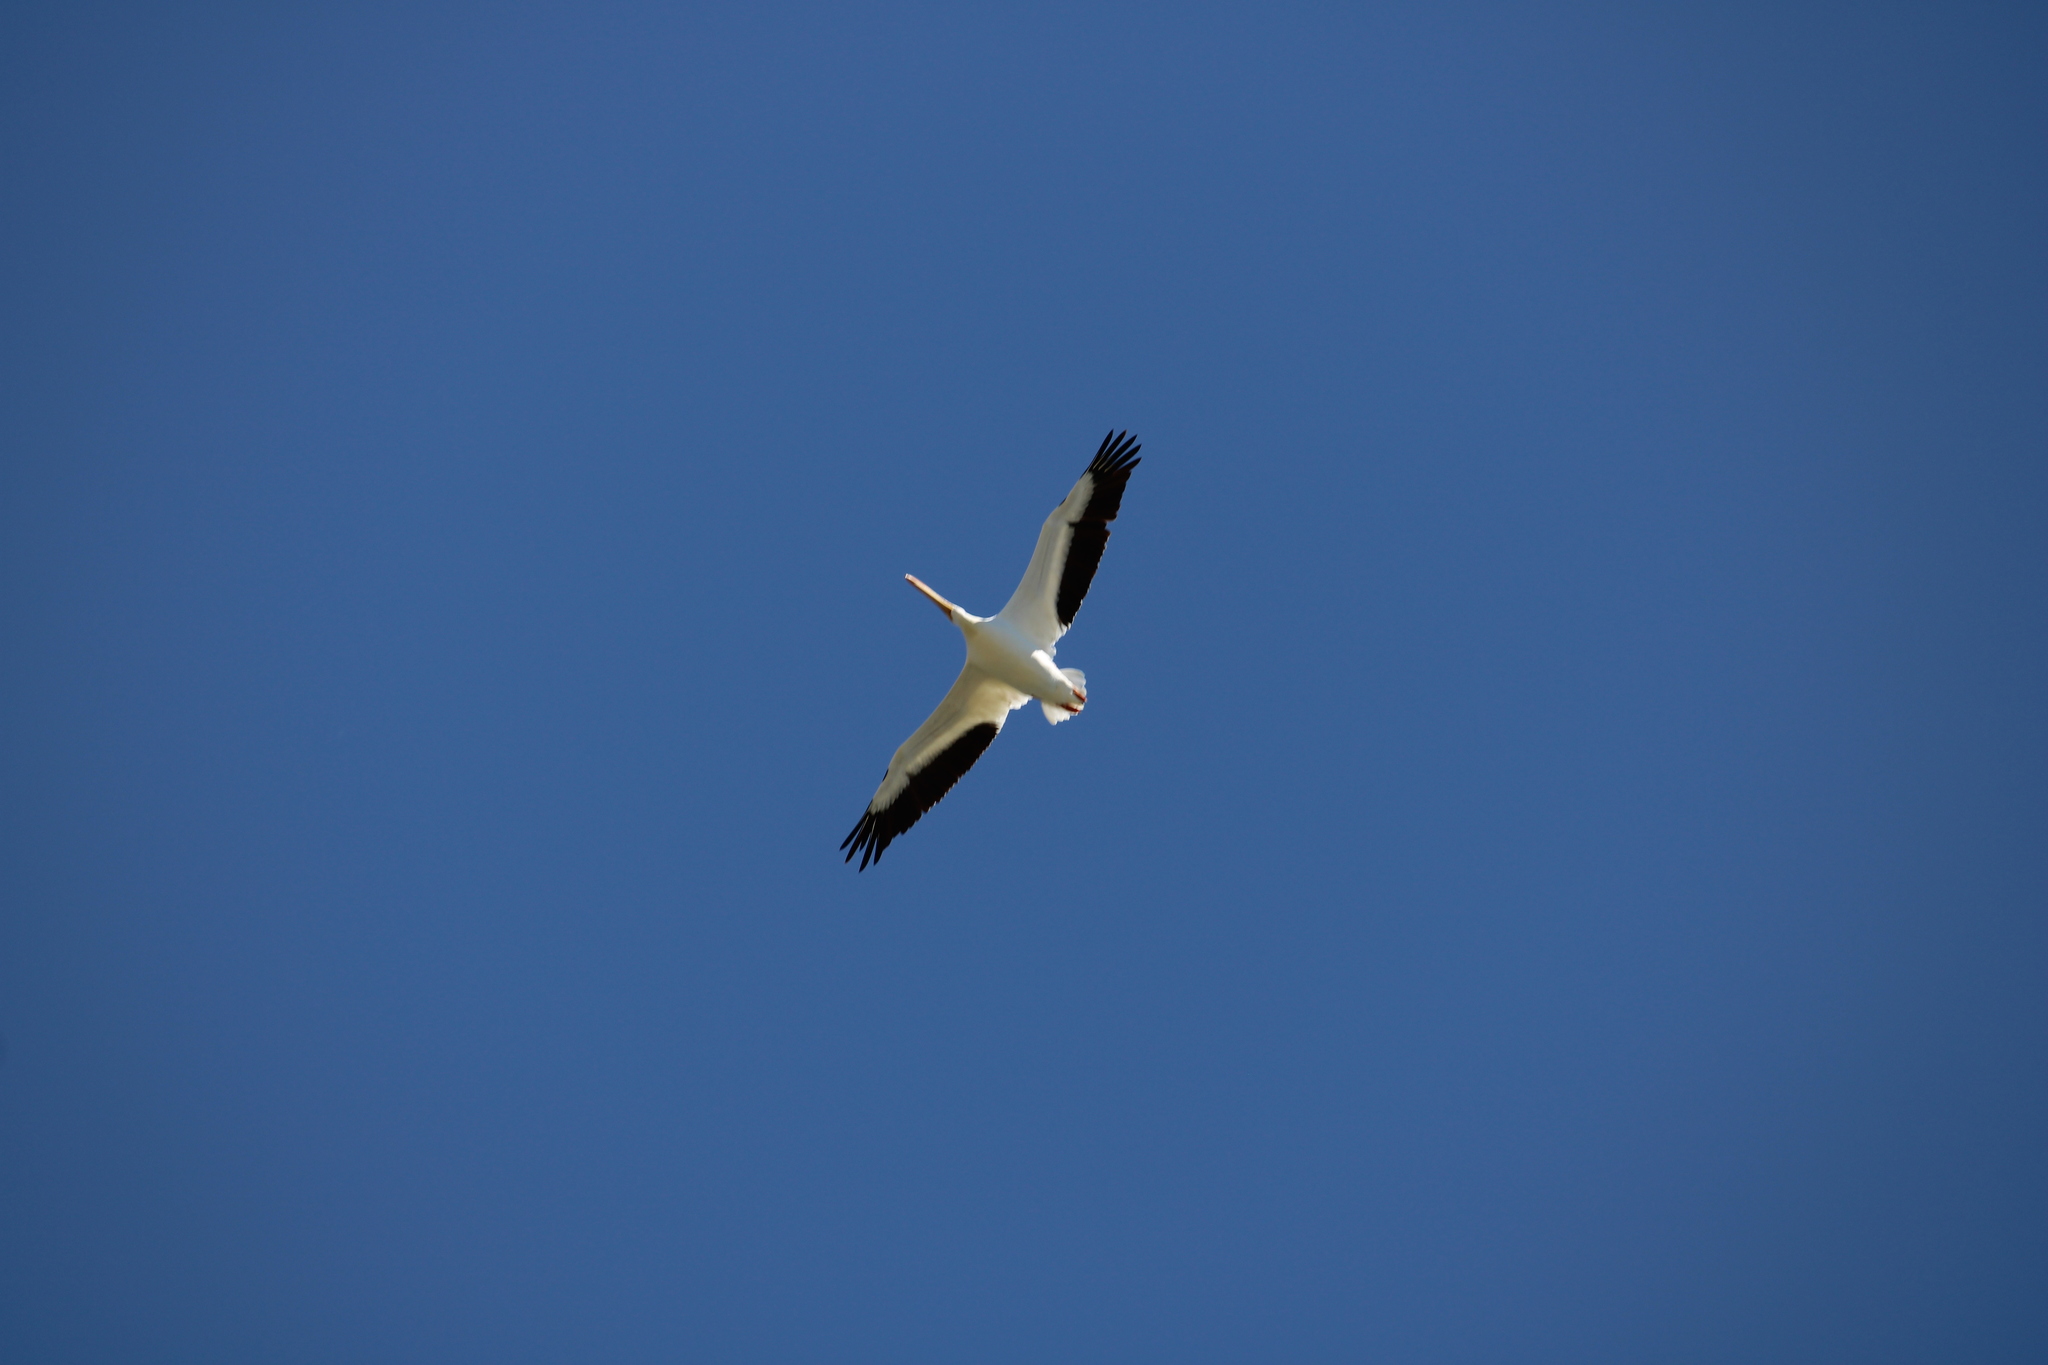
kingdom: Animalia
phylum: Chordata
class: Aves
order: Pelecaniformes
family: Pelecanidae
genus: Pelecanus
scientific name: Pelecanus erythrorhynchos
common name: American white pelican
